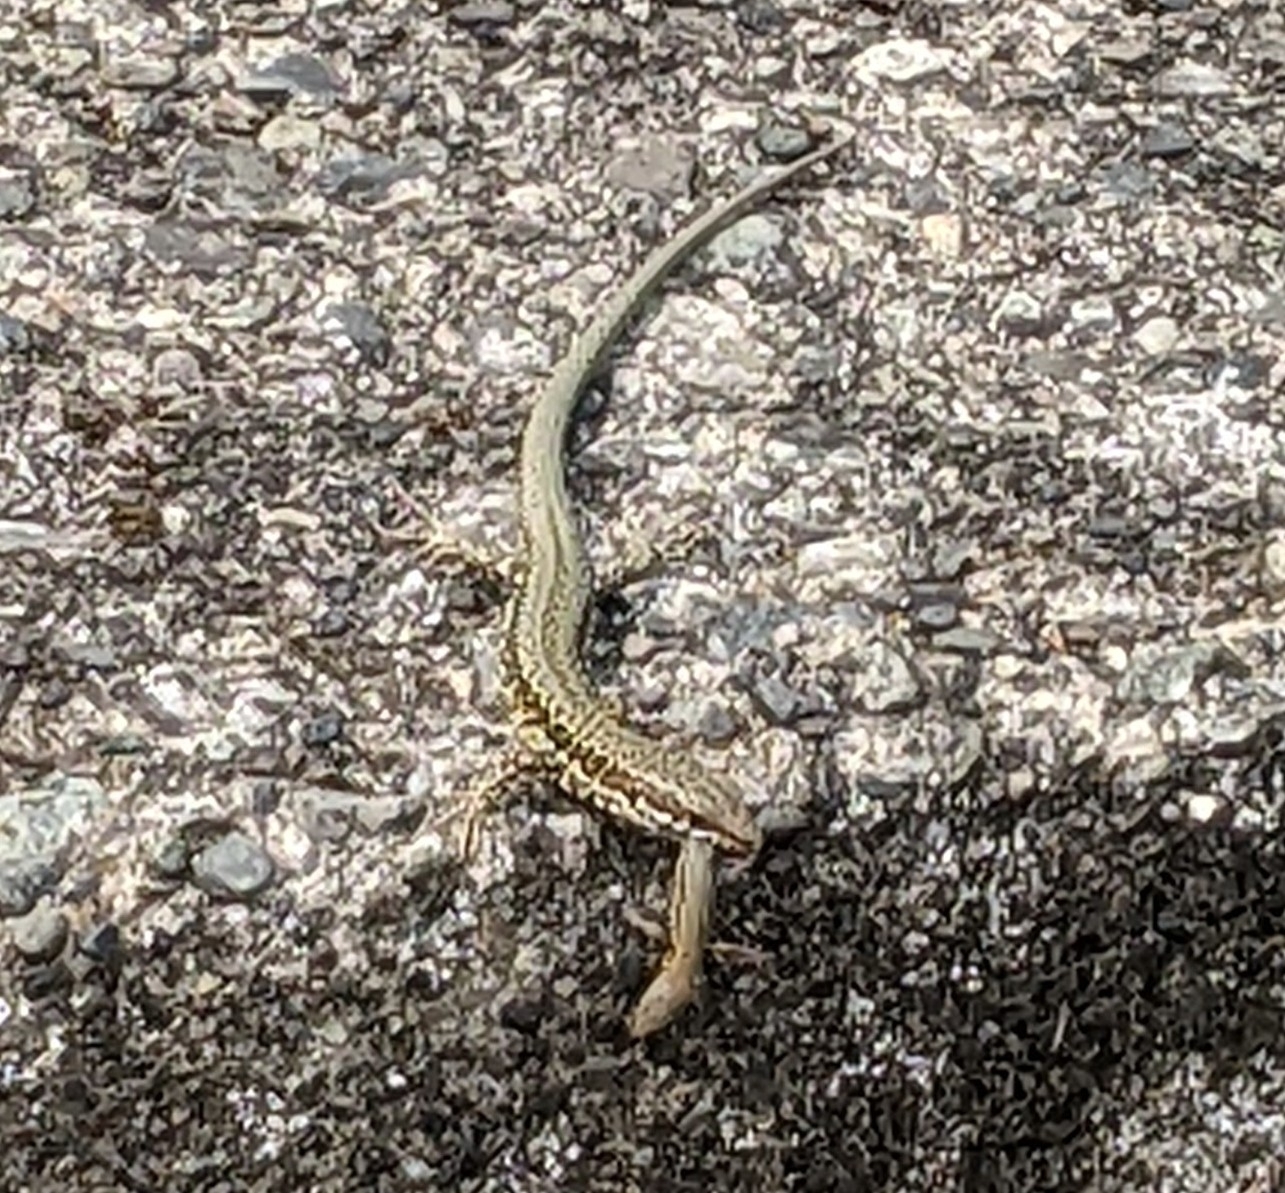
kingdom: Animalia
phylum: Chordata
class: Squamata
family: Lacertidae
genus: Podarcis
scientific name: Podarcis muralis
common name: Common wall lizard
